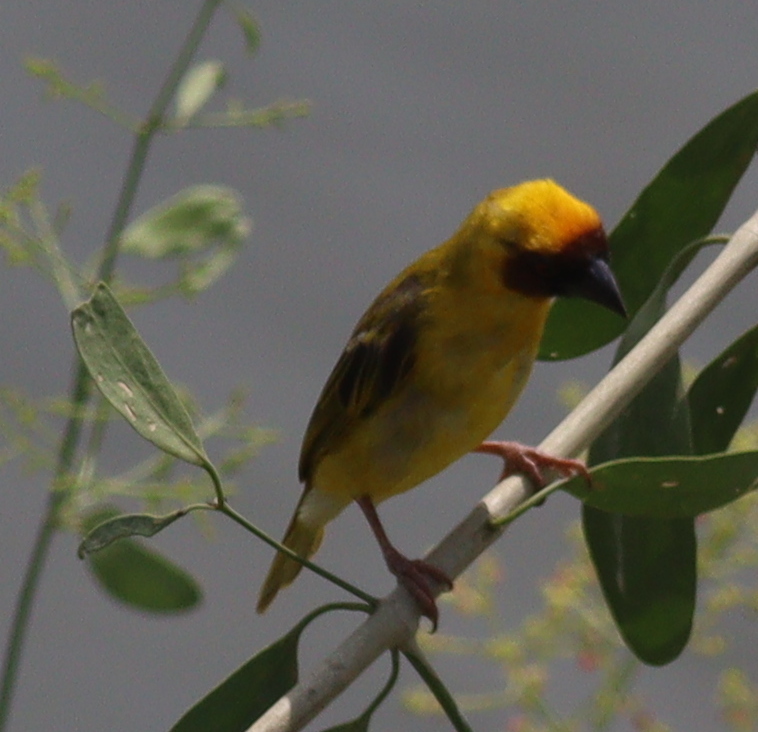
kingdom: Animalia
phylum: Chordata
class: Aves
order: Passeriformes
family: Ploceidae
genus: Ploceus
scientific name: Ploceus galbula
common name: Rüppell's weaver
